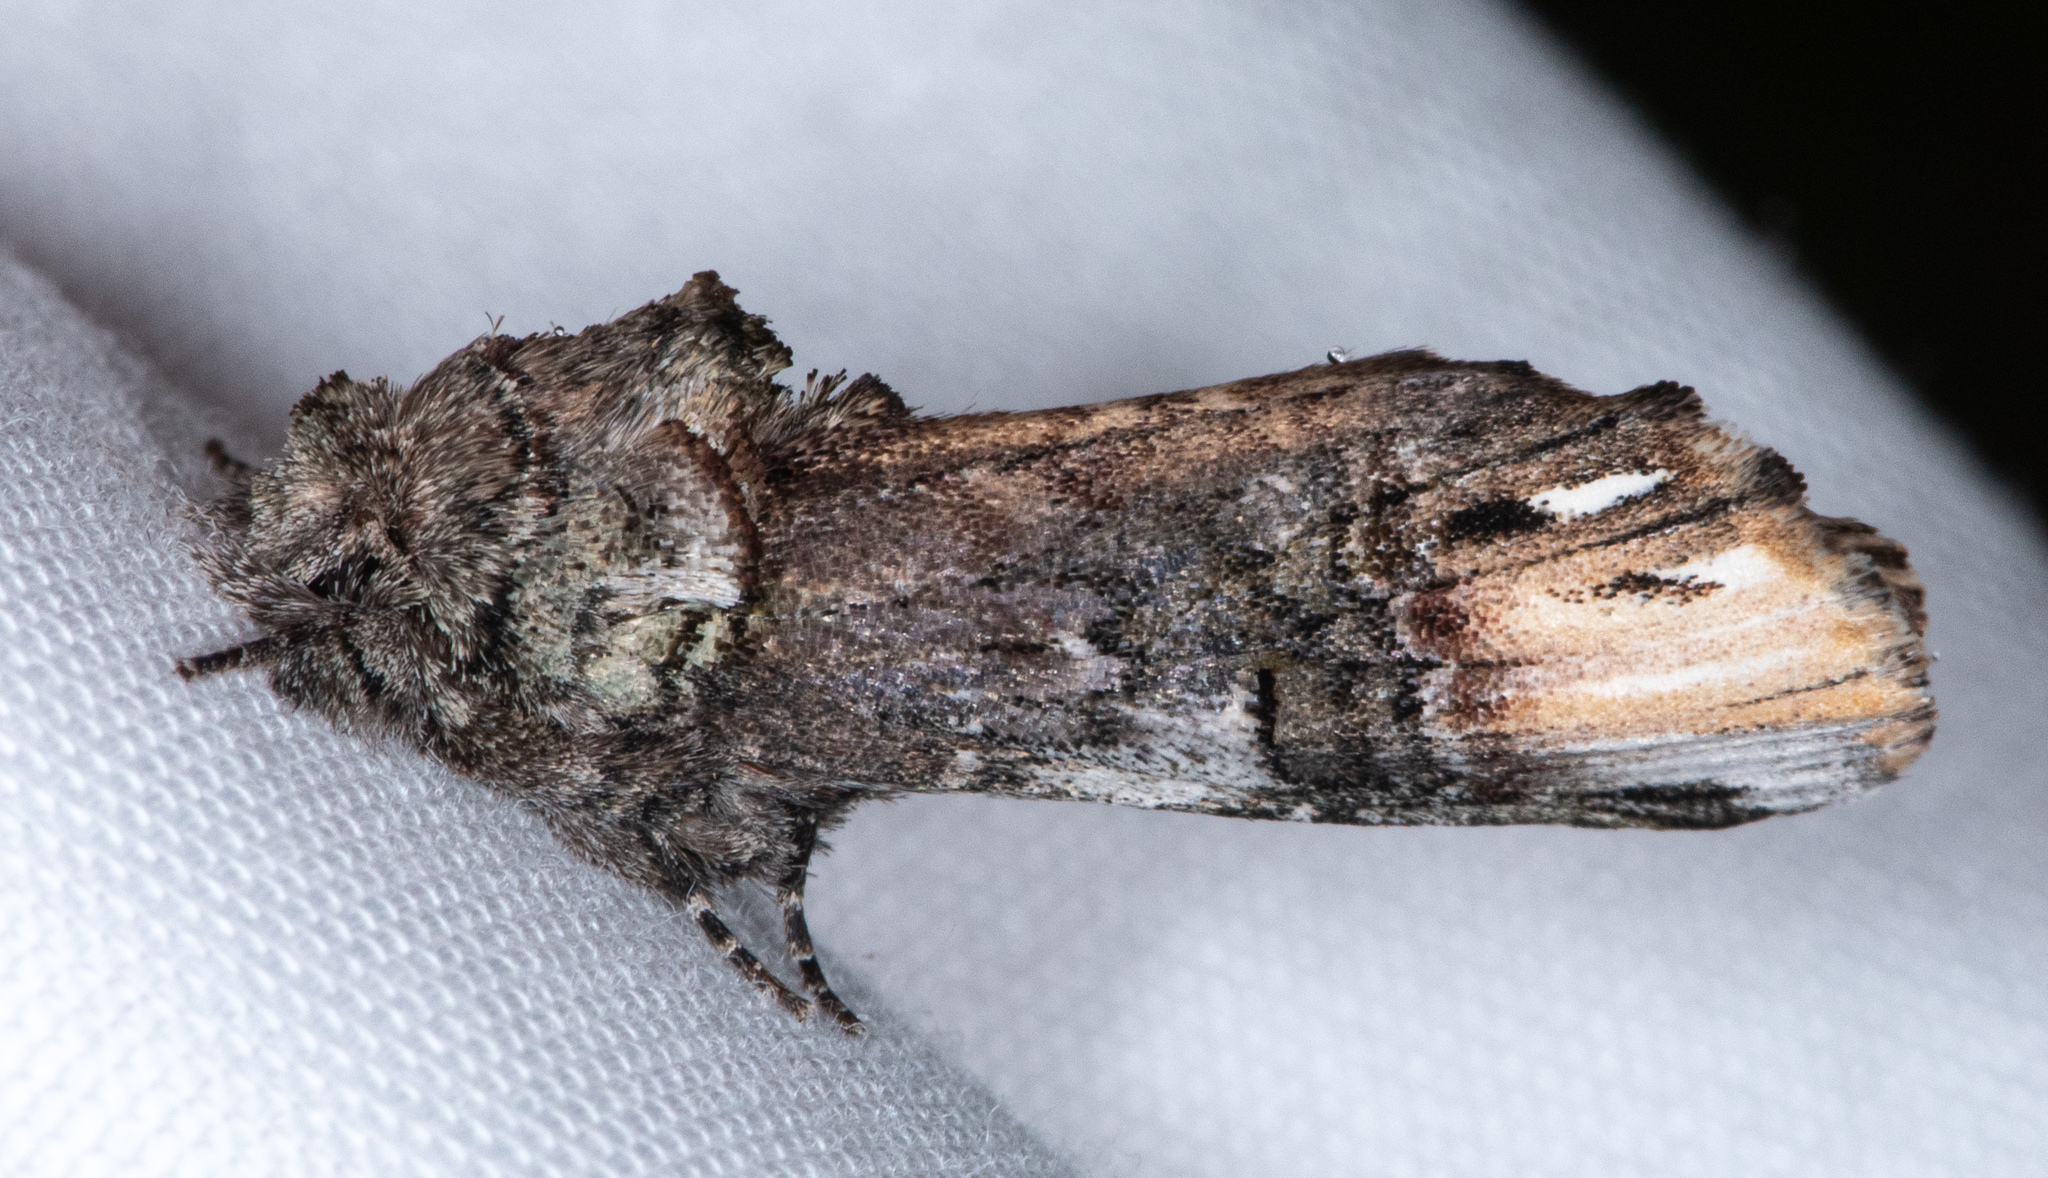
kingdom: Animalia
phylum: Arthropoda
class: Insecta
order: Lepidoptera
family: Notodontidae
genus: Schizura
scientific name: Schizura
